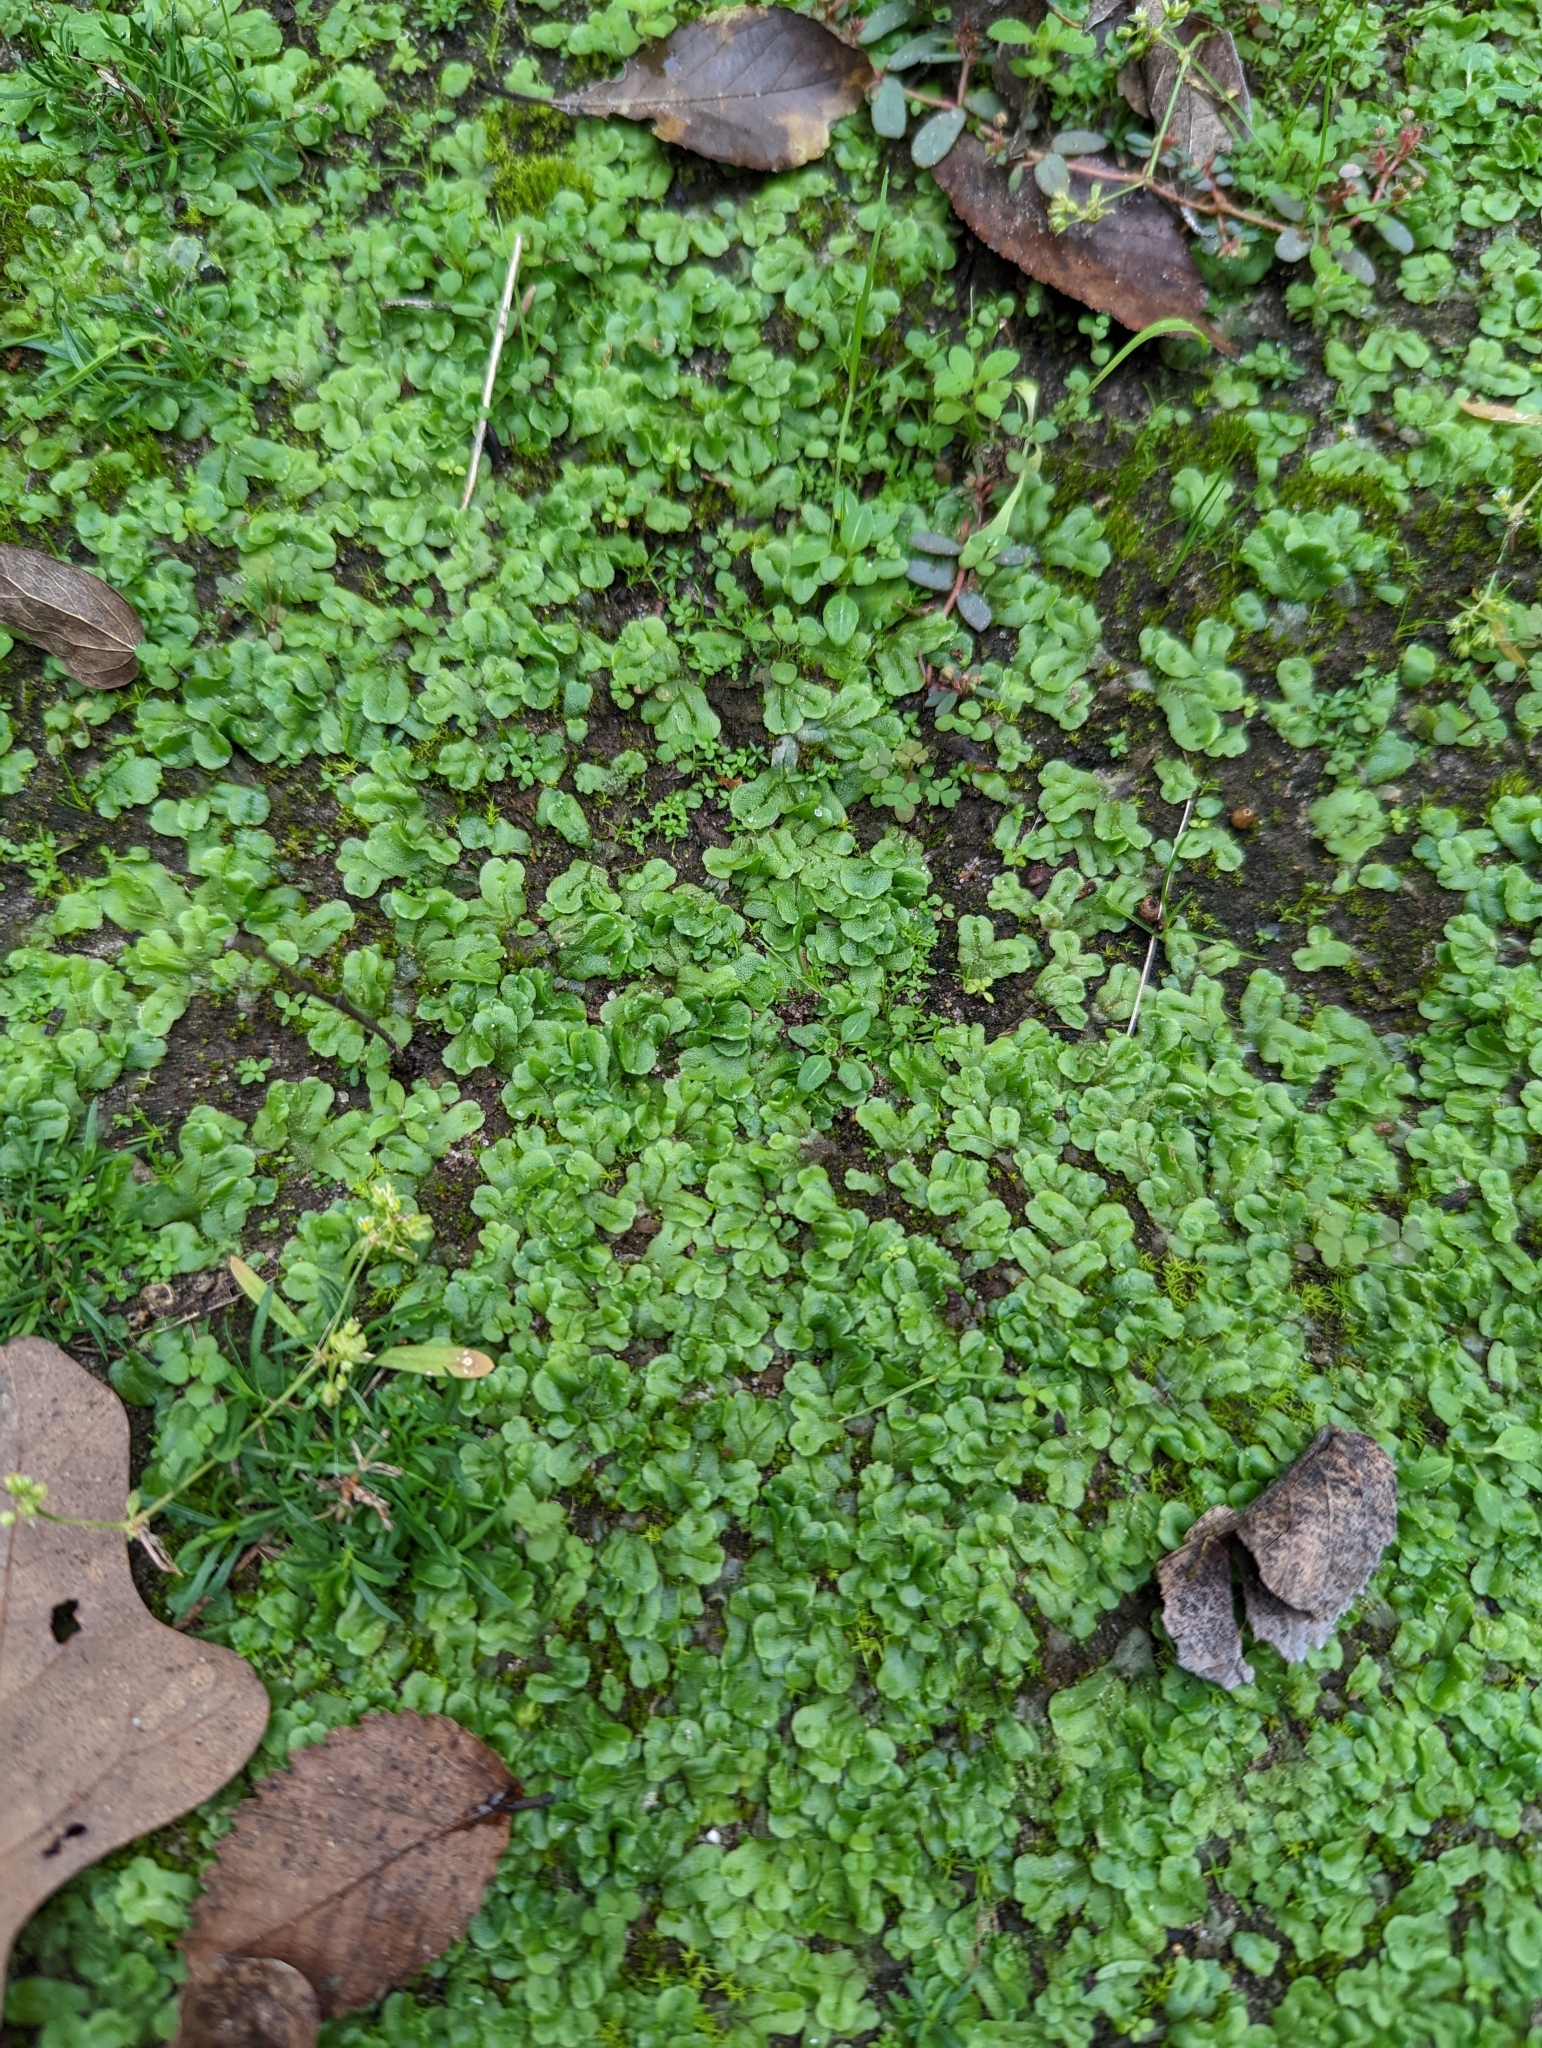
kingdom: Plantae
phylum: Marchantiophyta
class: Marchantiopsida
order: Marchantiales
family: Corsiniaceae
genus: Corsinia
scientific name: Corsinia coriandrina
